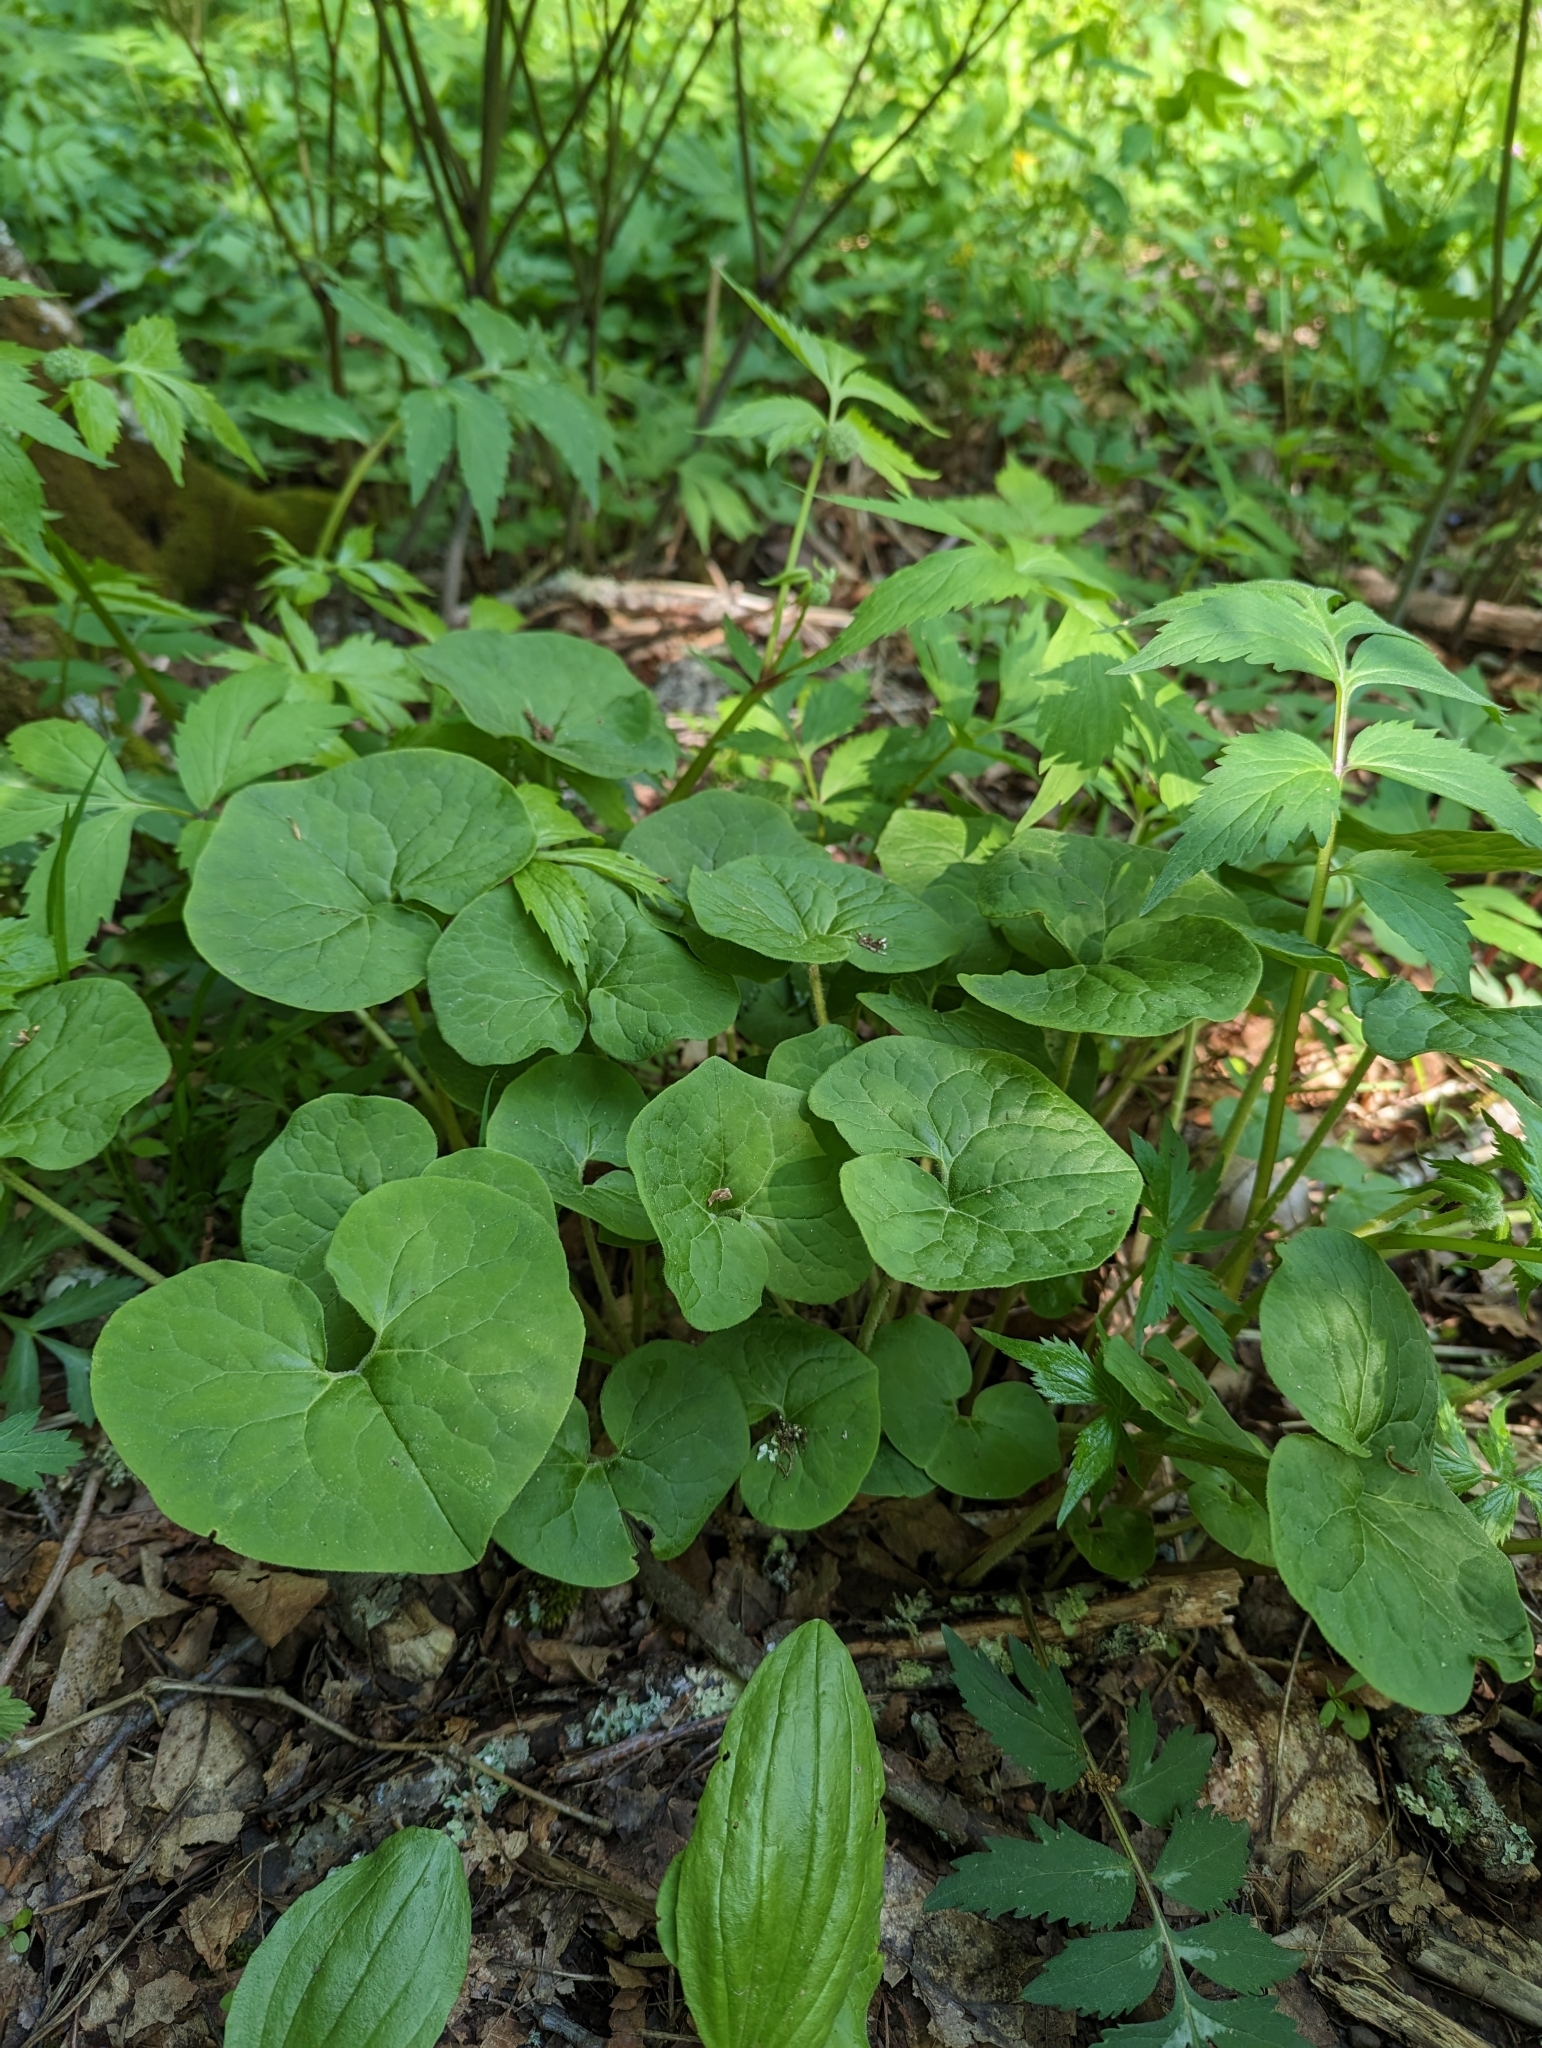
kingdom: Plantae
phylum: Tracheophyta
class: Magnoliopsida
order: Piperales
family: Aristolochiaceae
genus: Asarum
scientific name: Asarum canadense
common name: Wild ginger
